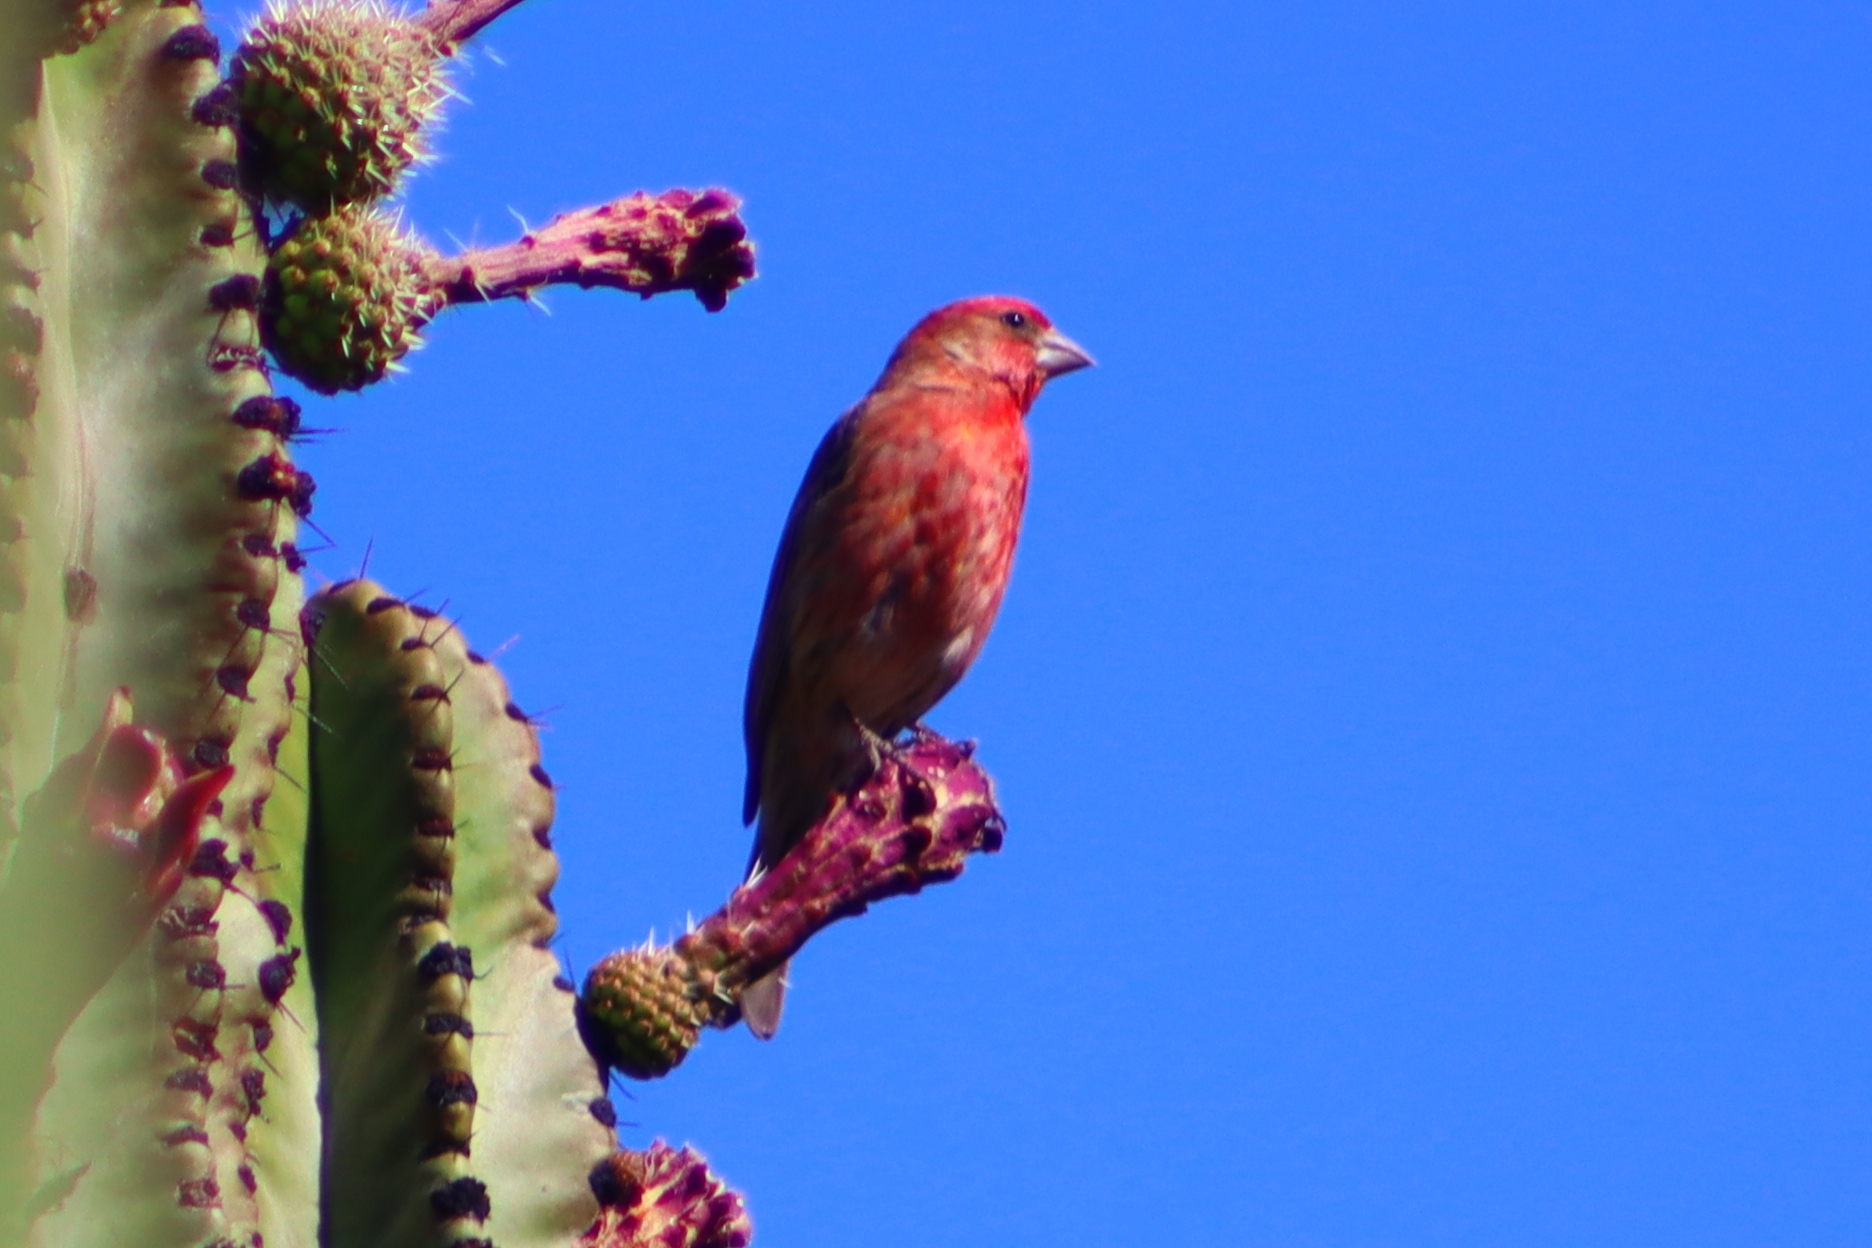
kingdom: Animalia
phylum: Chordata
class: Aves
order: Passeriformes
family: Fringillidae
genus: Haemorhous
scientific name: Haemorhous mexicanus
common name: House finch
